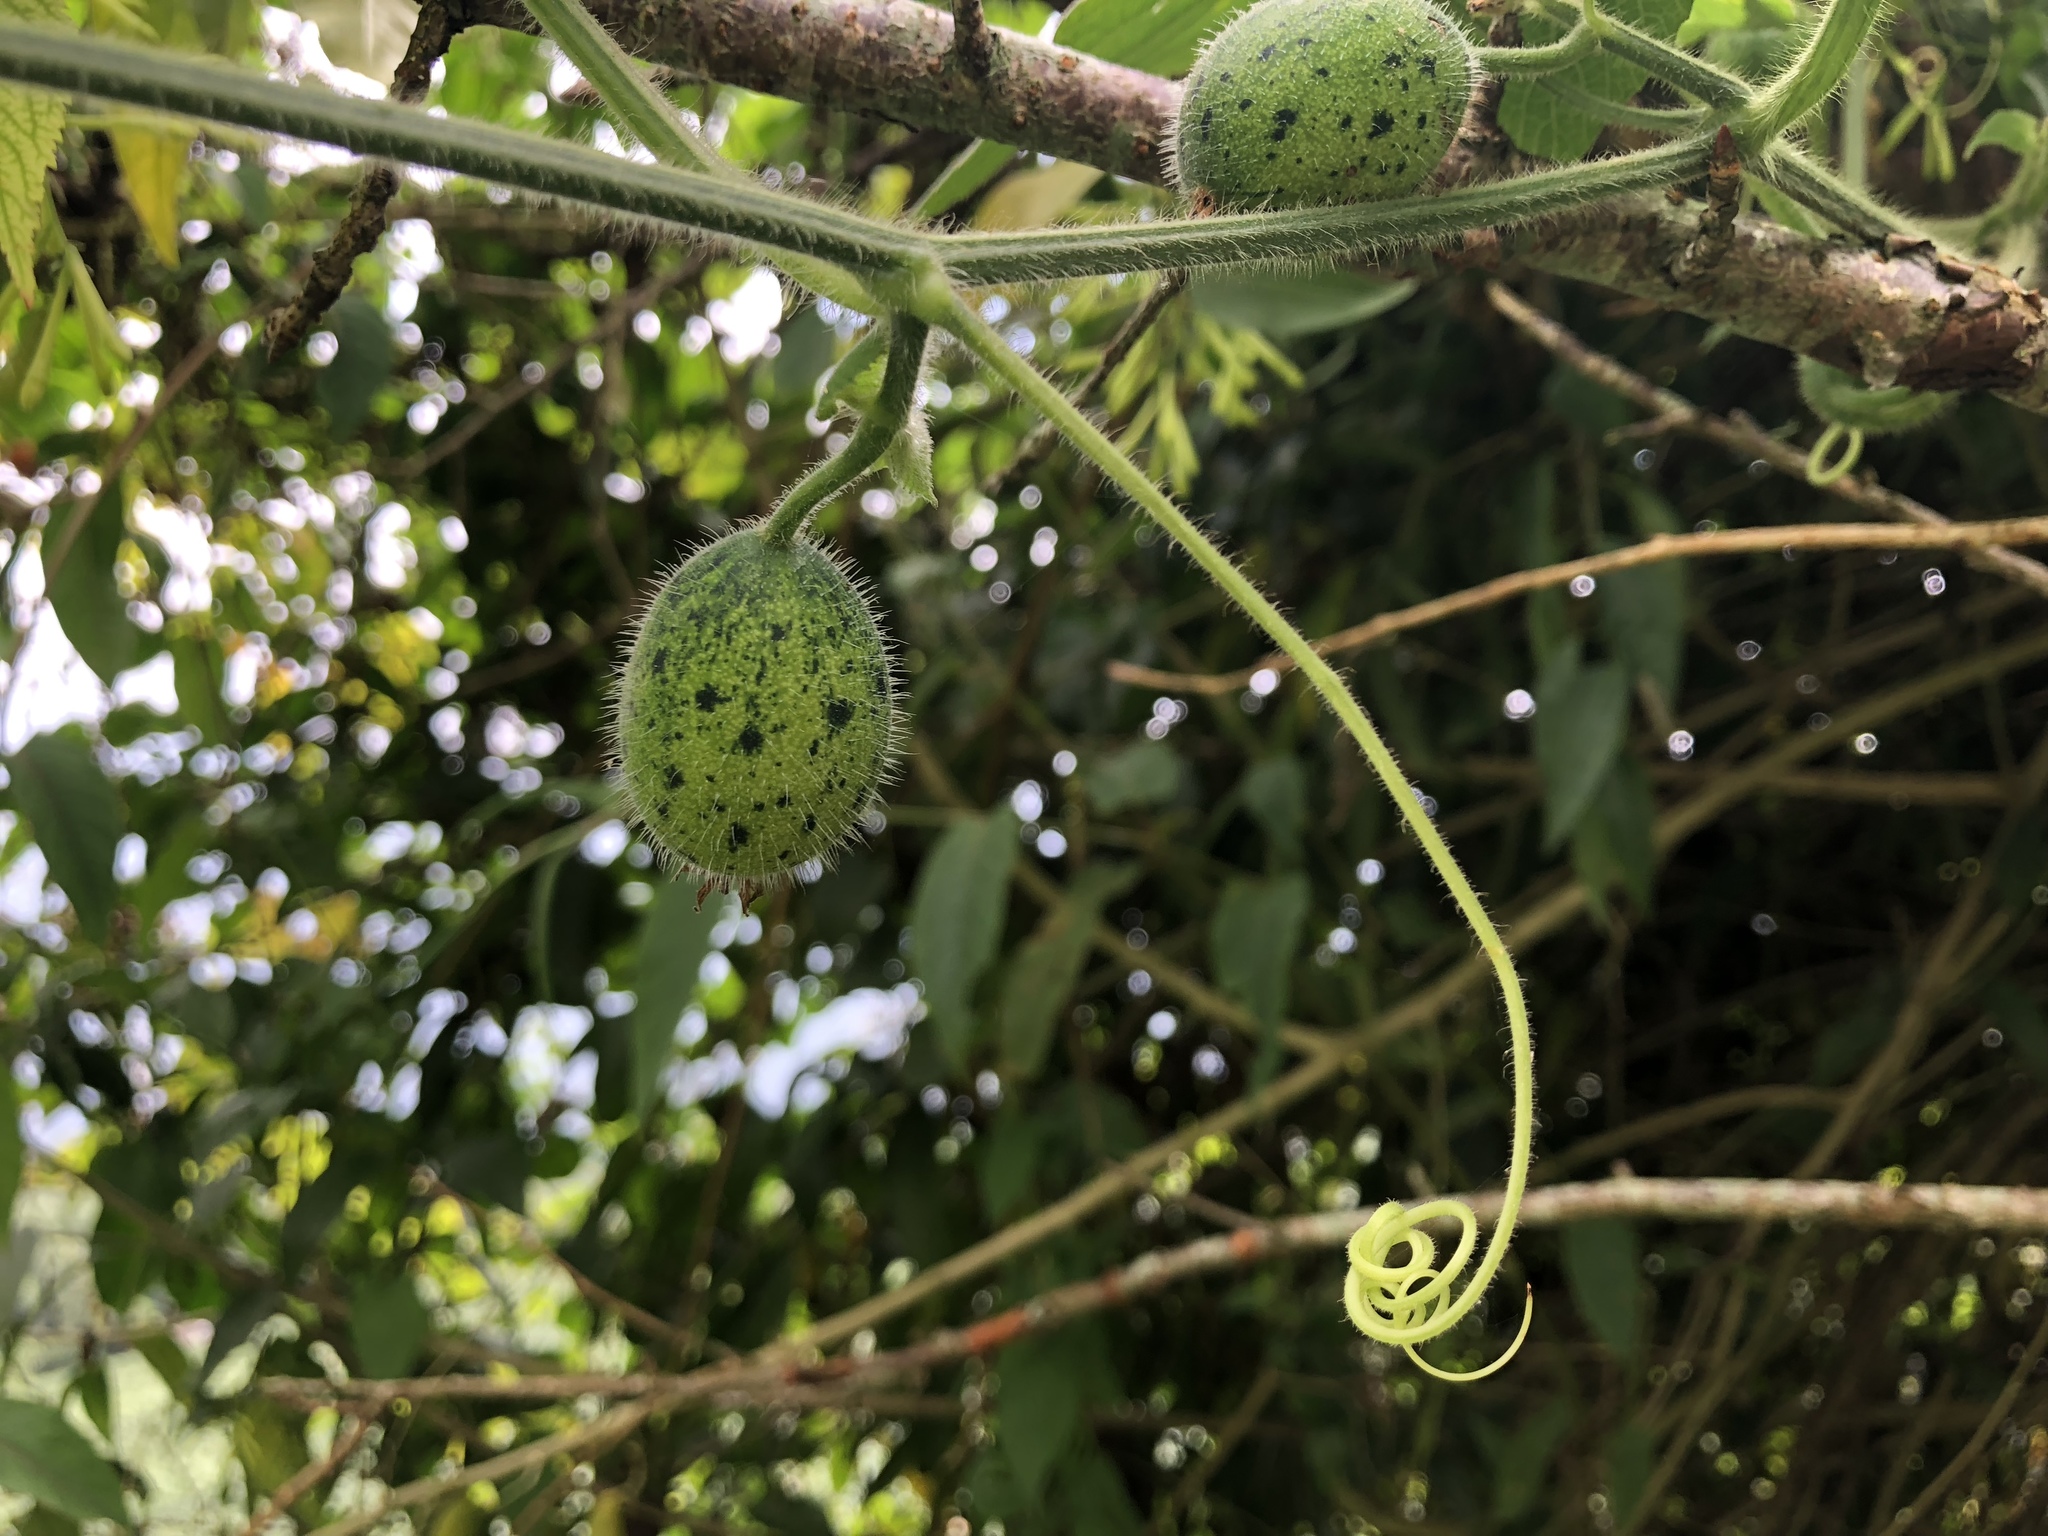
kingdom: Plantae
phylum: Tracheophyta
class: Magnoliopsida
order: Cucurbitales
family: Cucurbitaceae
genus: Thladiantha
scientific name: Thladiantha nudiflora
